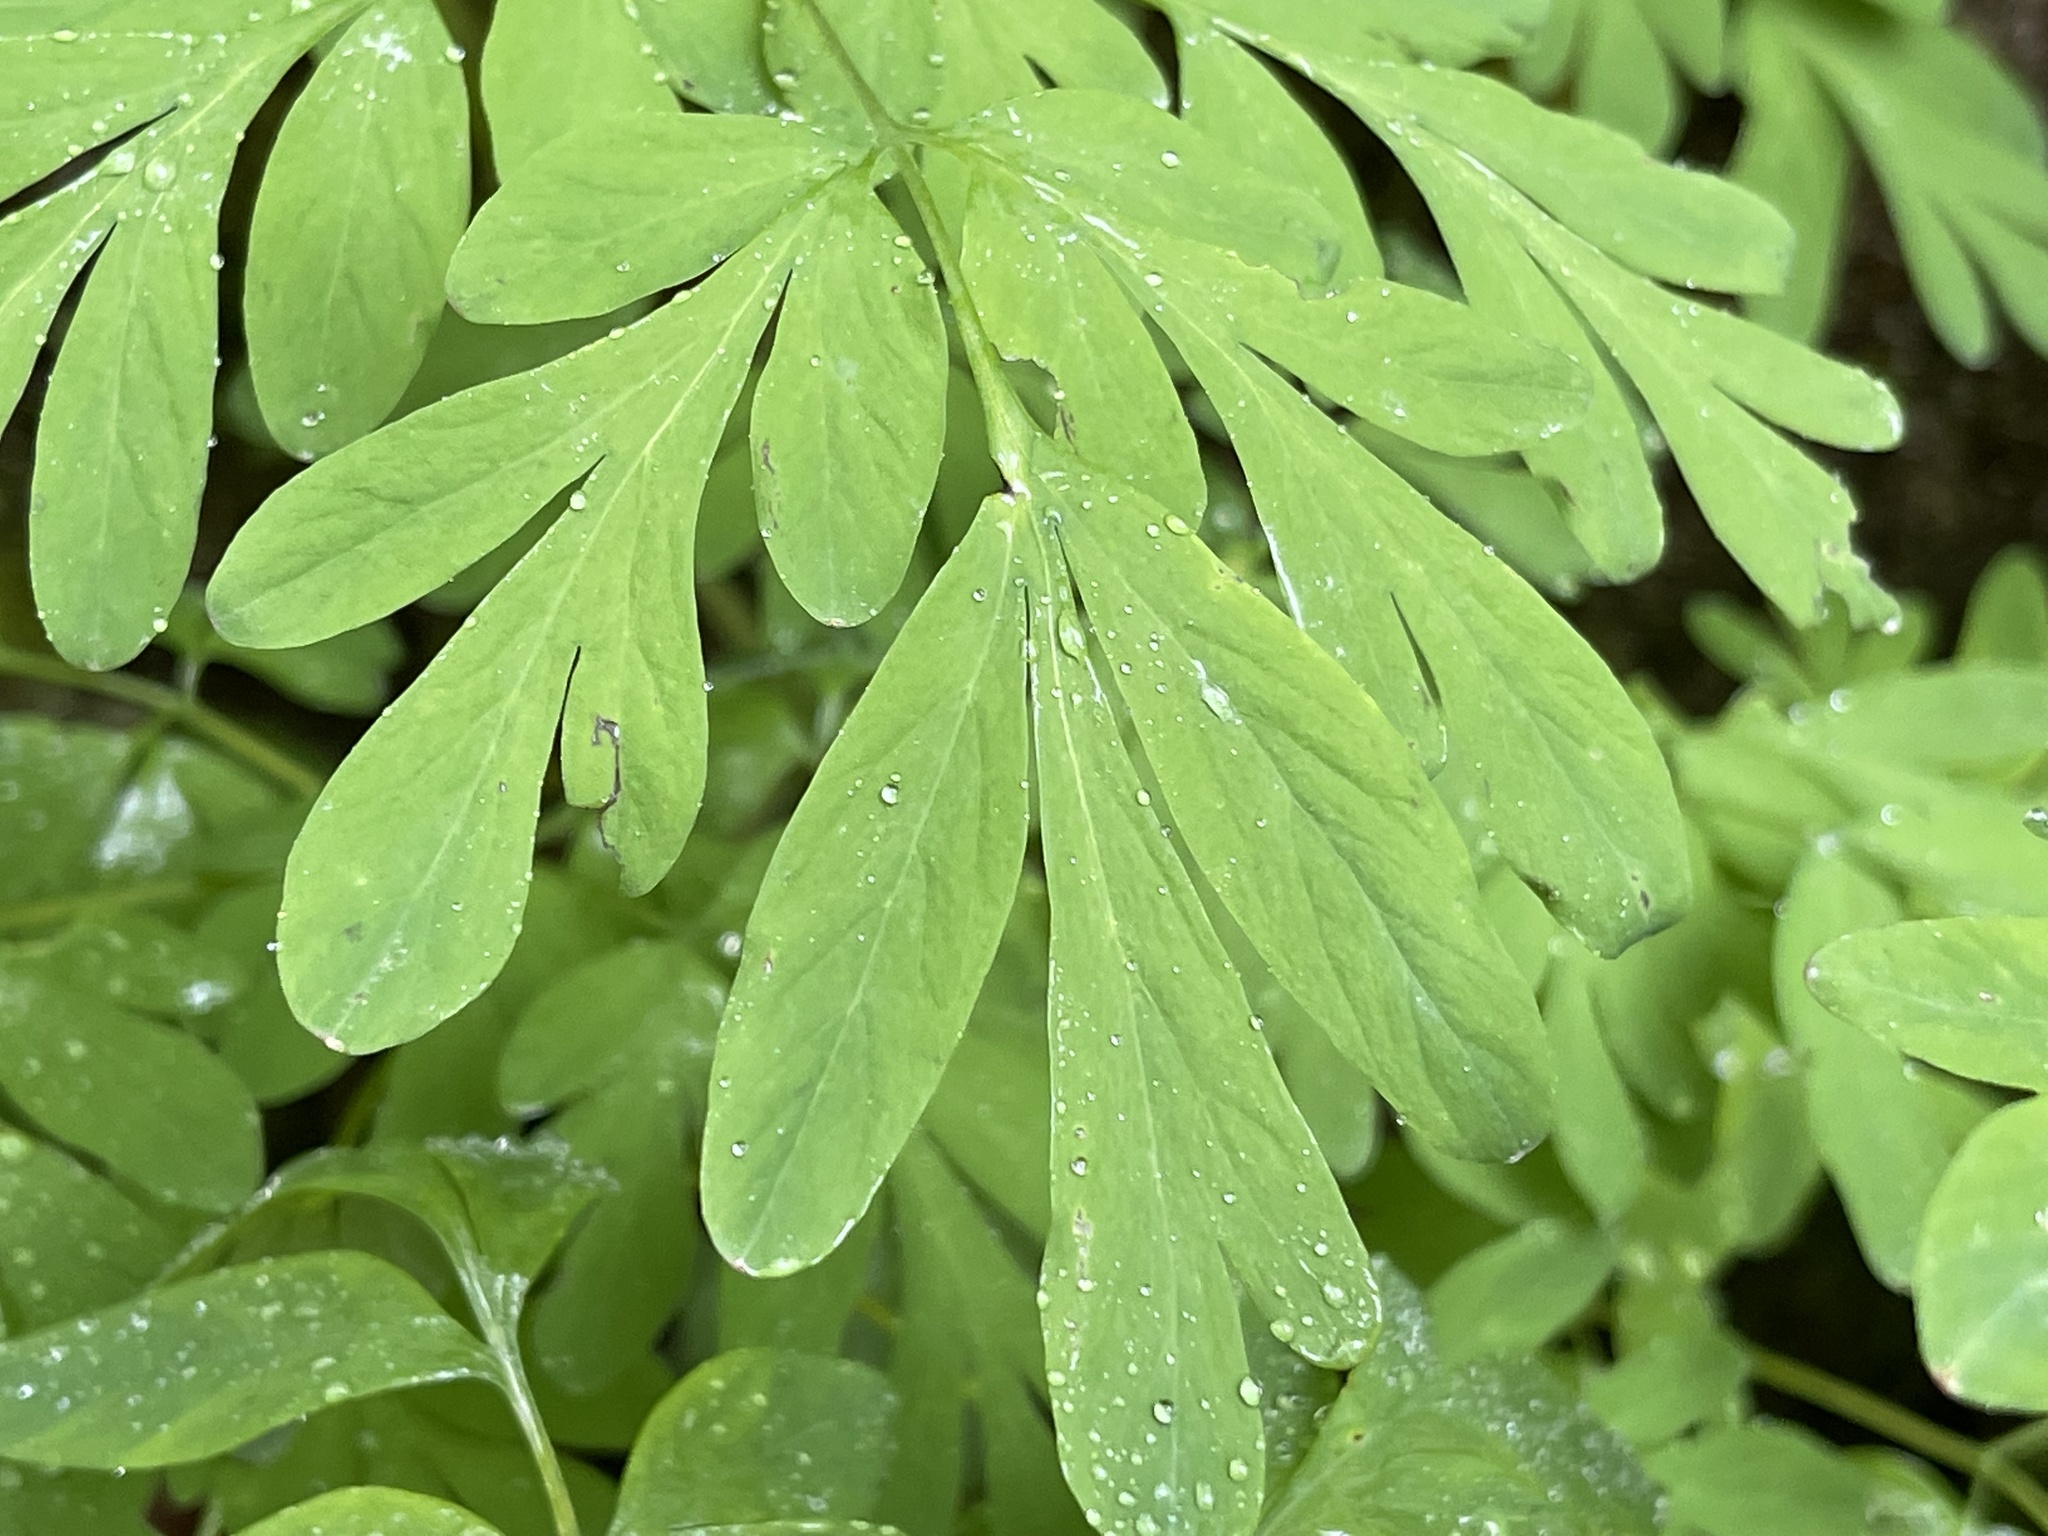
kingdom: Plantae
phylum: Tracheophyta
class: Magnoliopsida
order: Ranunculales
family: Papaveraceae
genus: Corydalis
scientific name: Corydalis scouleri
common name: Scouler's corydalis
